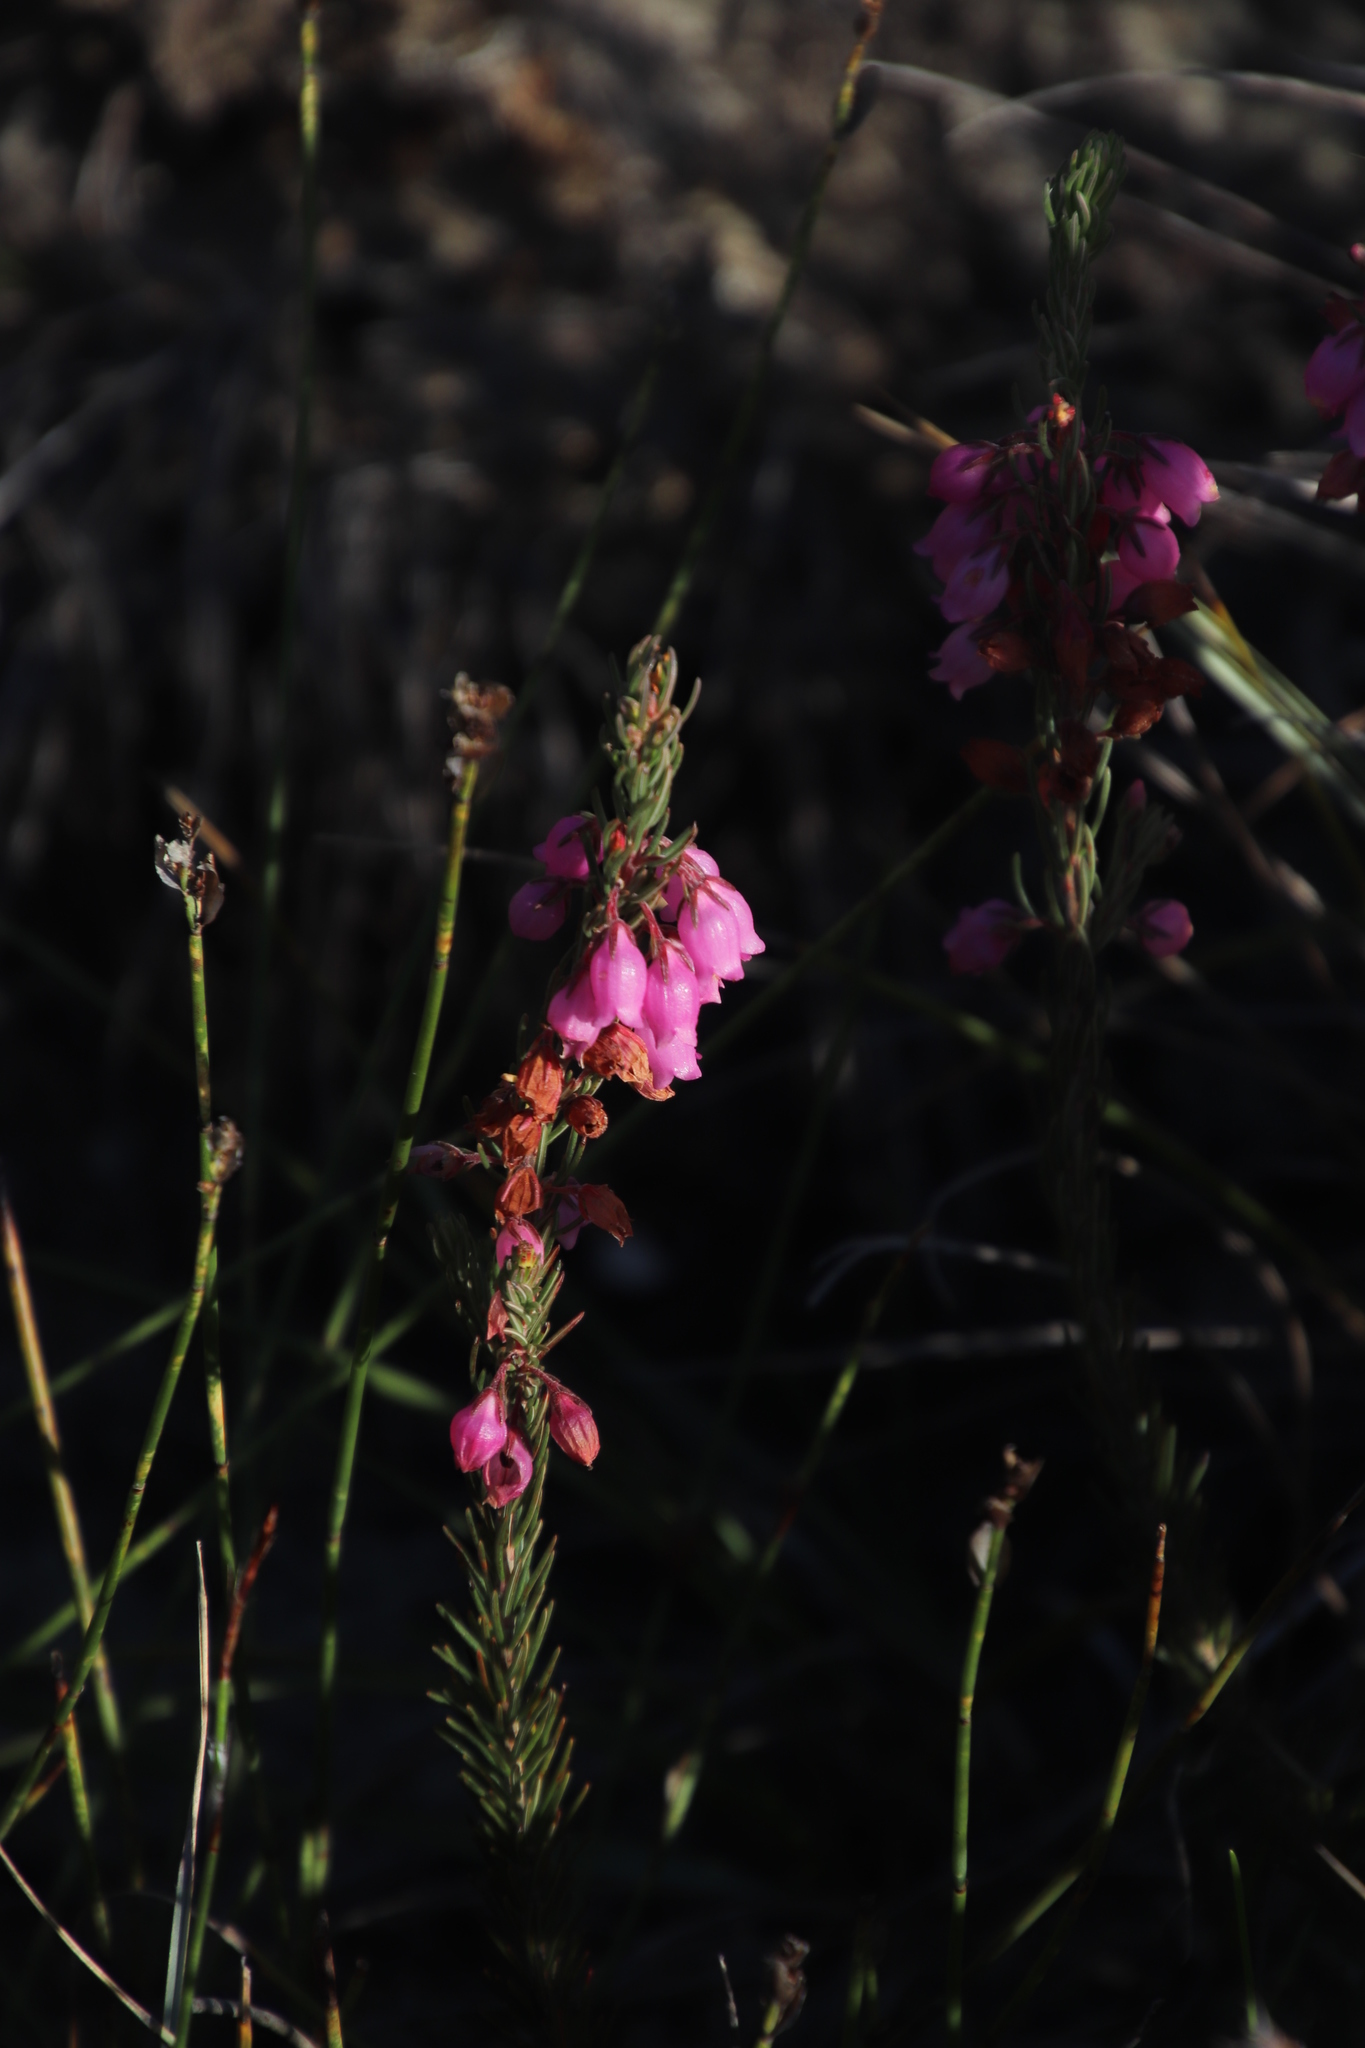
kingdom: Plantae
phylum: Tracheophyta
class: Magnoliopsida
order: Ericales
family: Ericaceae
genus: Erica
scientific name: Erica viscaria
